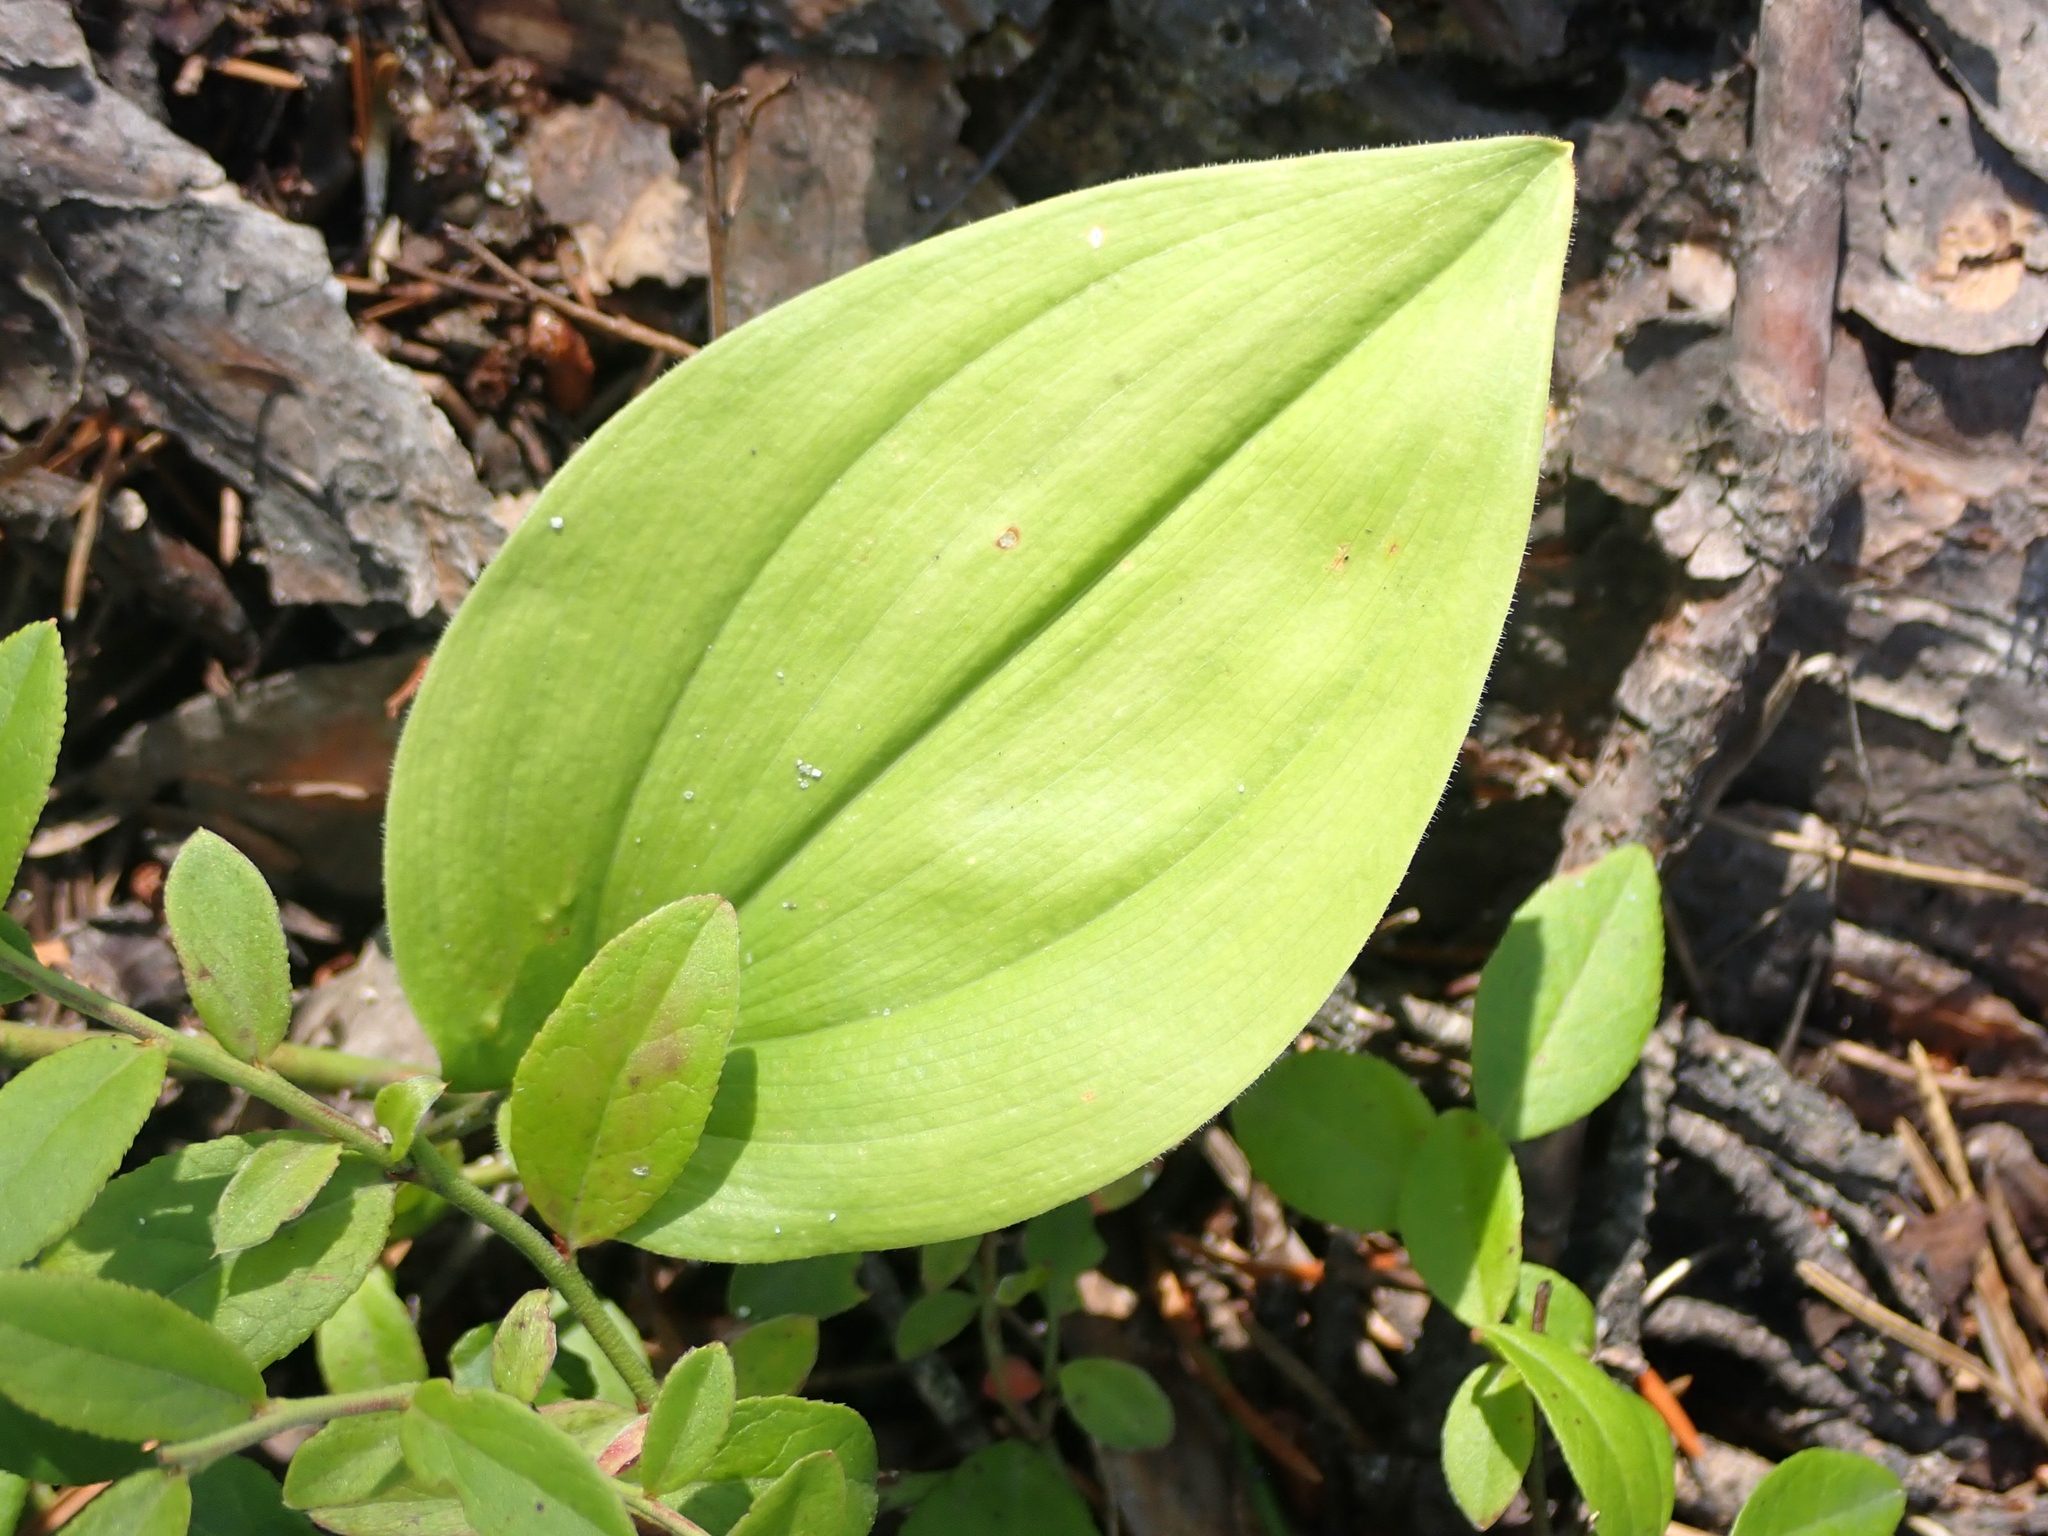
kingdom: Plantae
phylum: Tracheophyta
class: Liliopsida
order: Asparagales
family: Asparagaceae
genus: Maianthemum
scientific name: Maianthemum canadense
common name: False lily-of-the-valley
